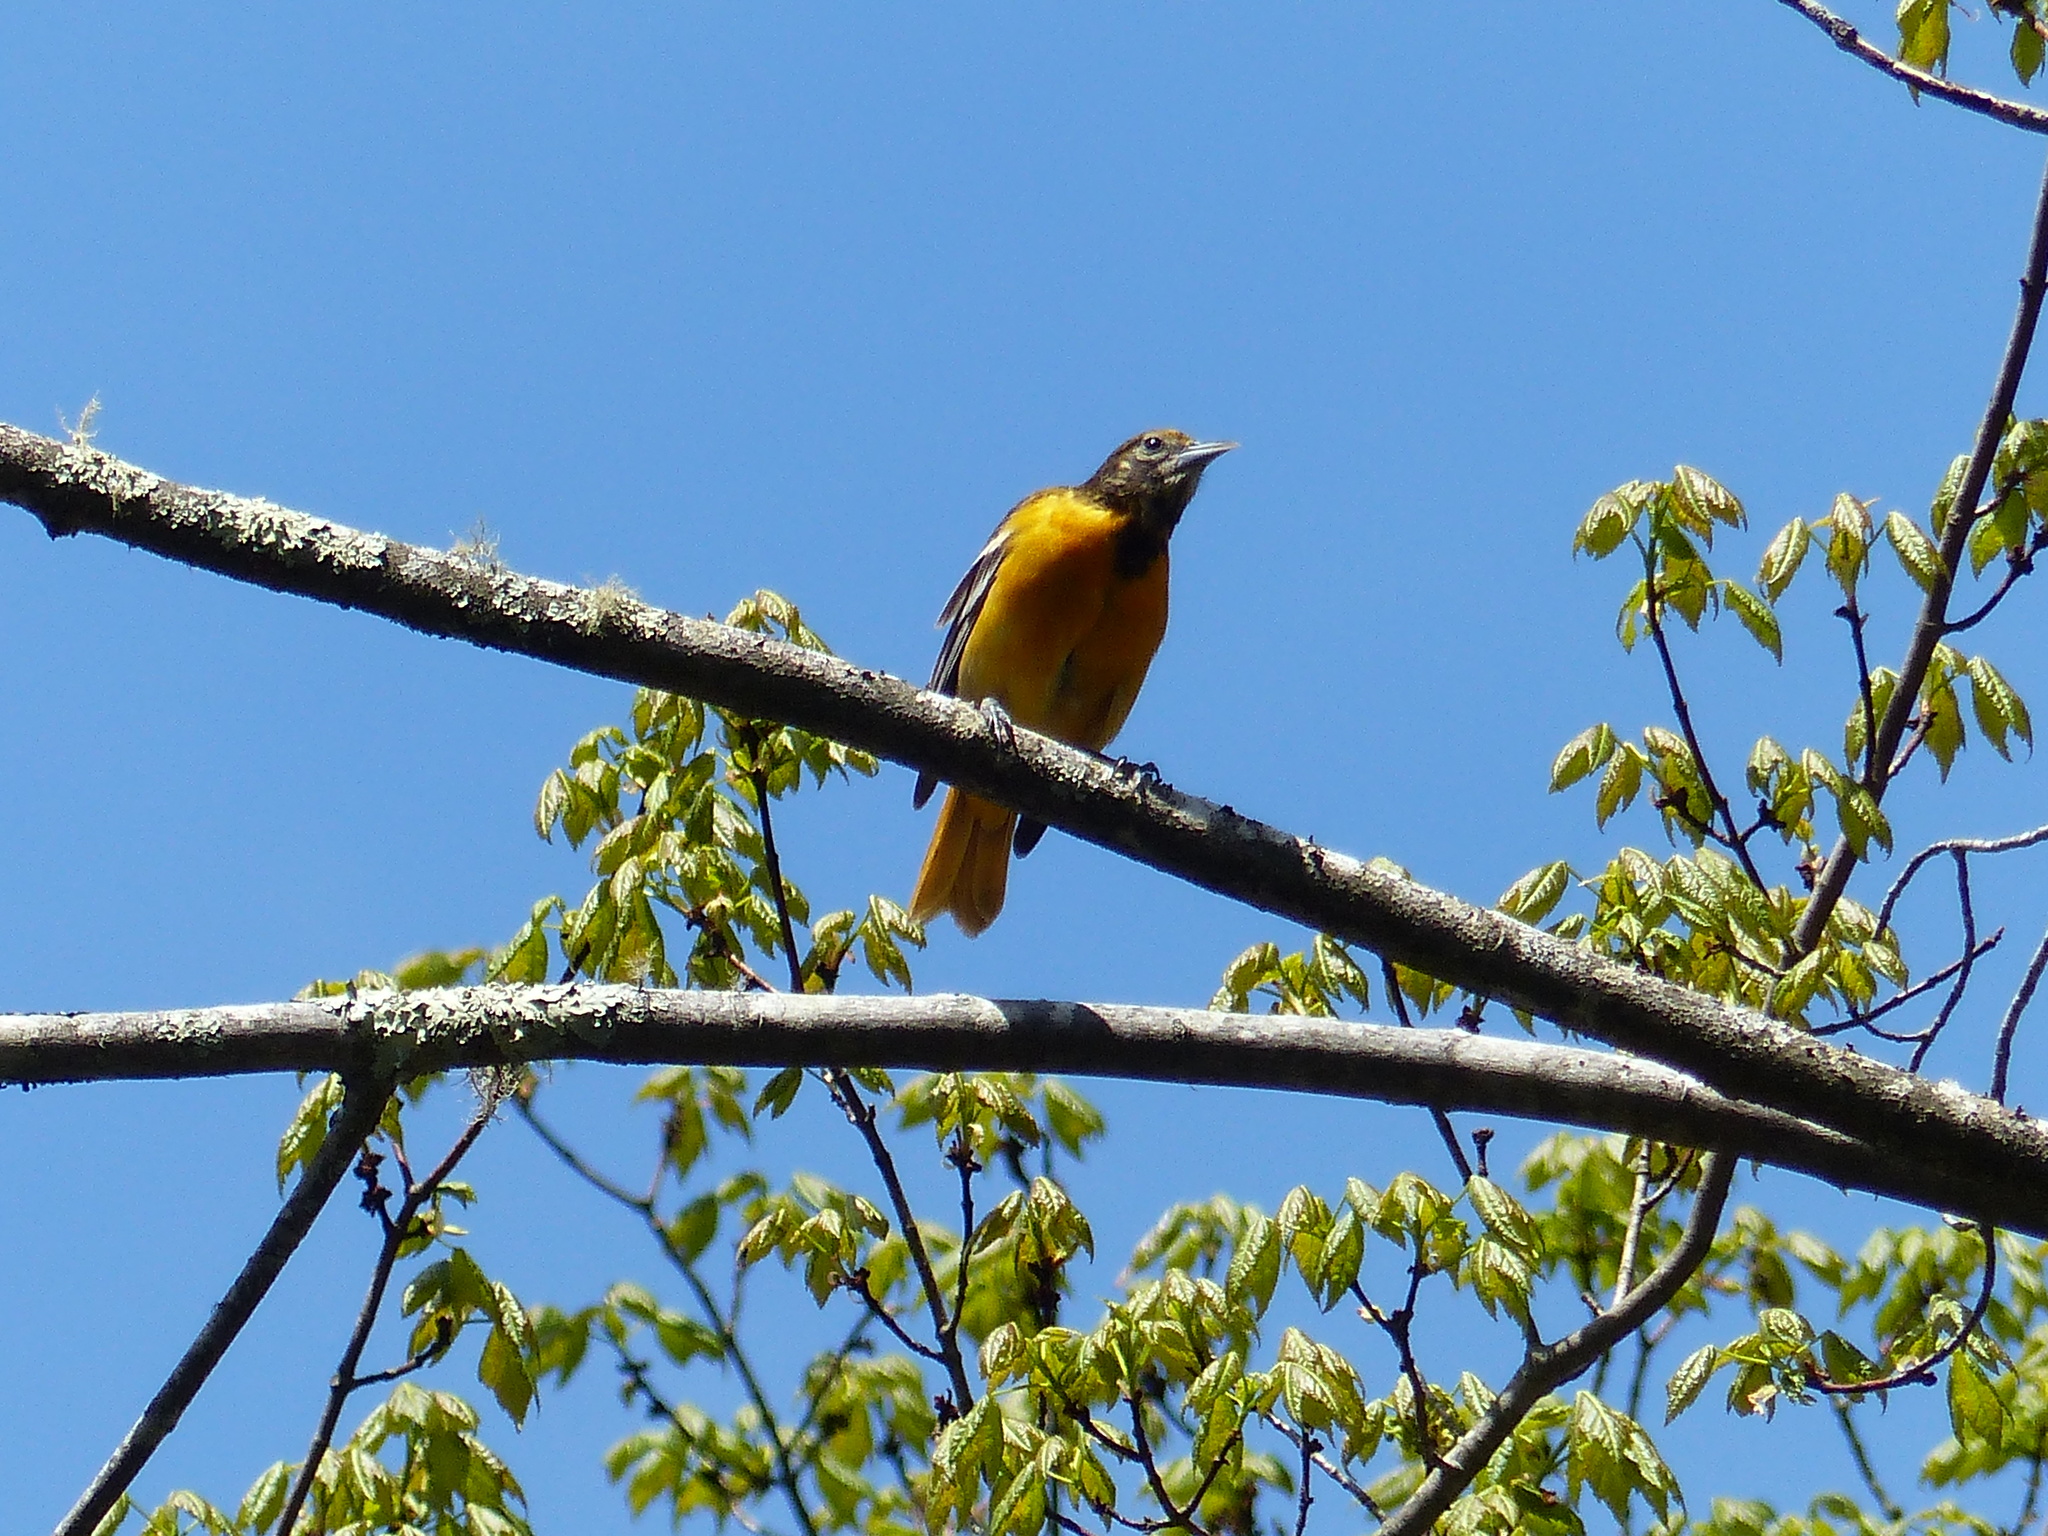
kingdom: Animalia
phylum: Chordata
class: Aves
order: Passeriformes
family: Icteridae
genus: Icterus
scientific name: Icterus galbula
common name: Baltimore oriole
